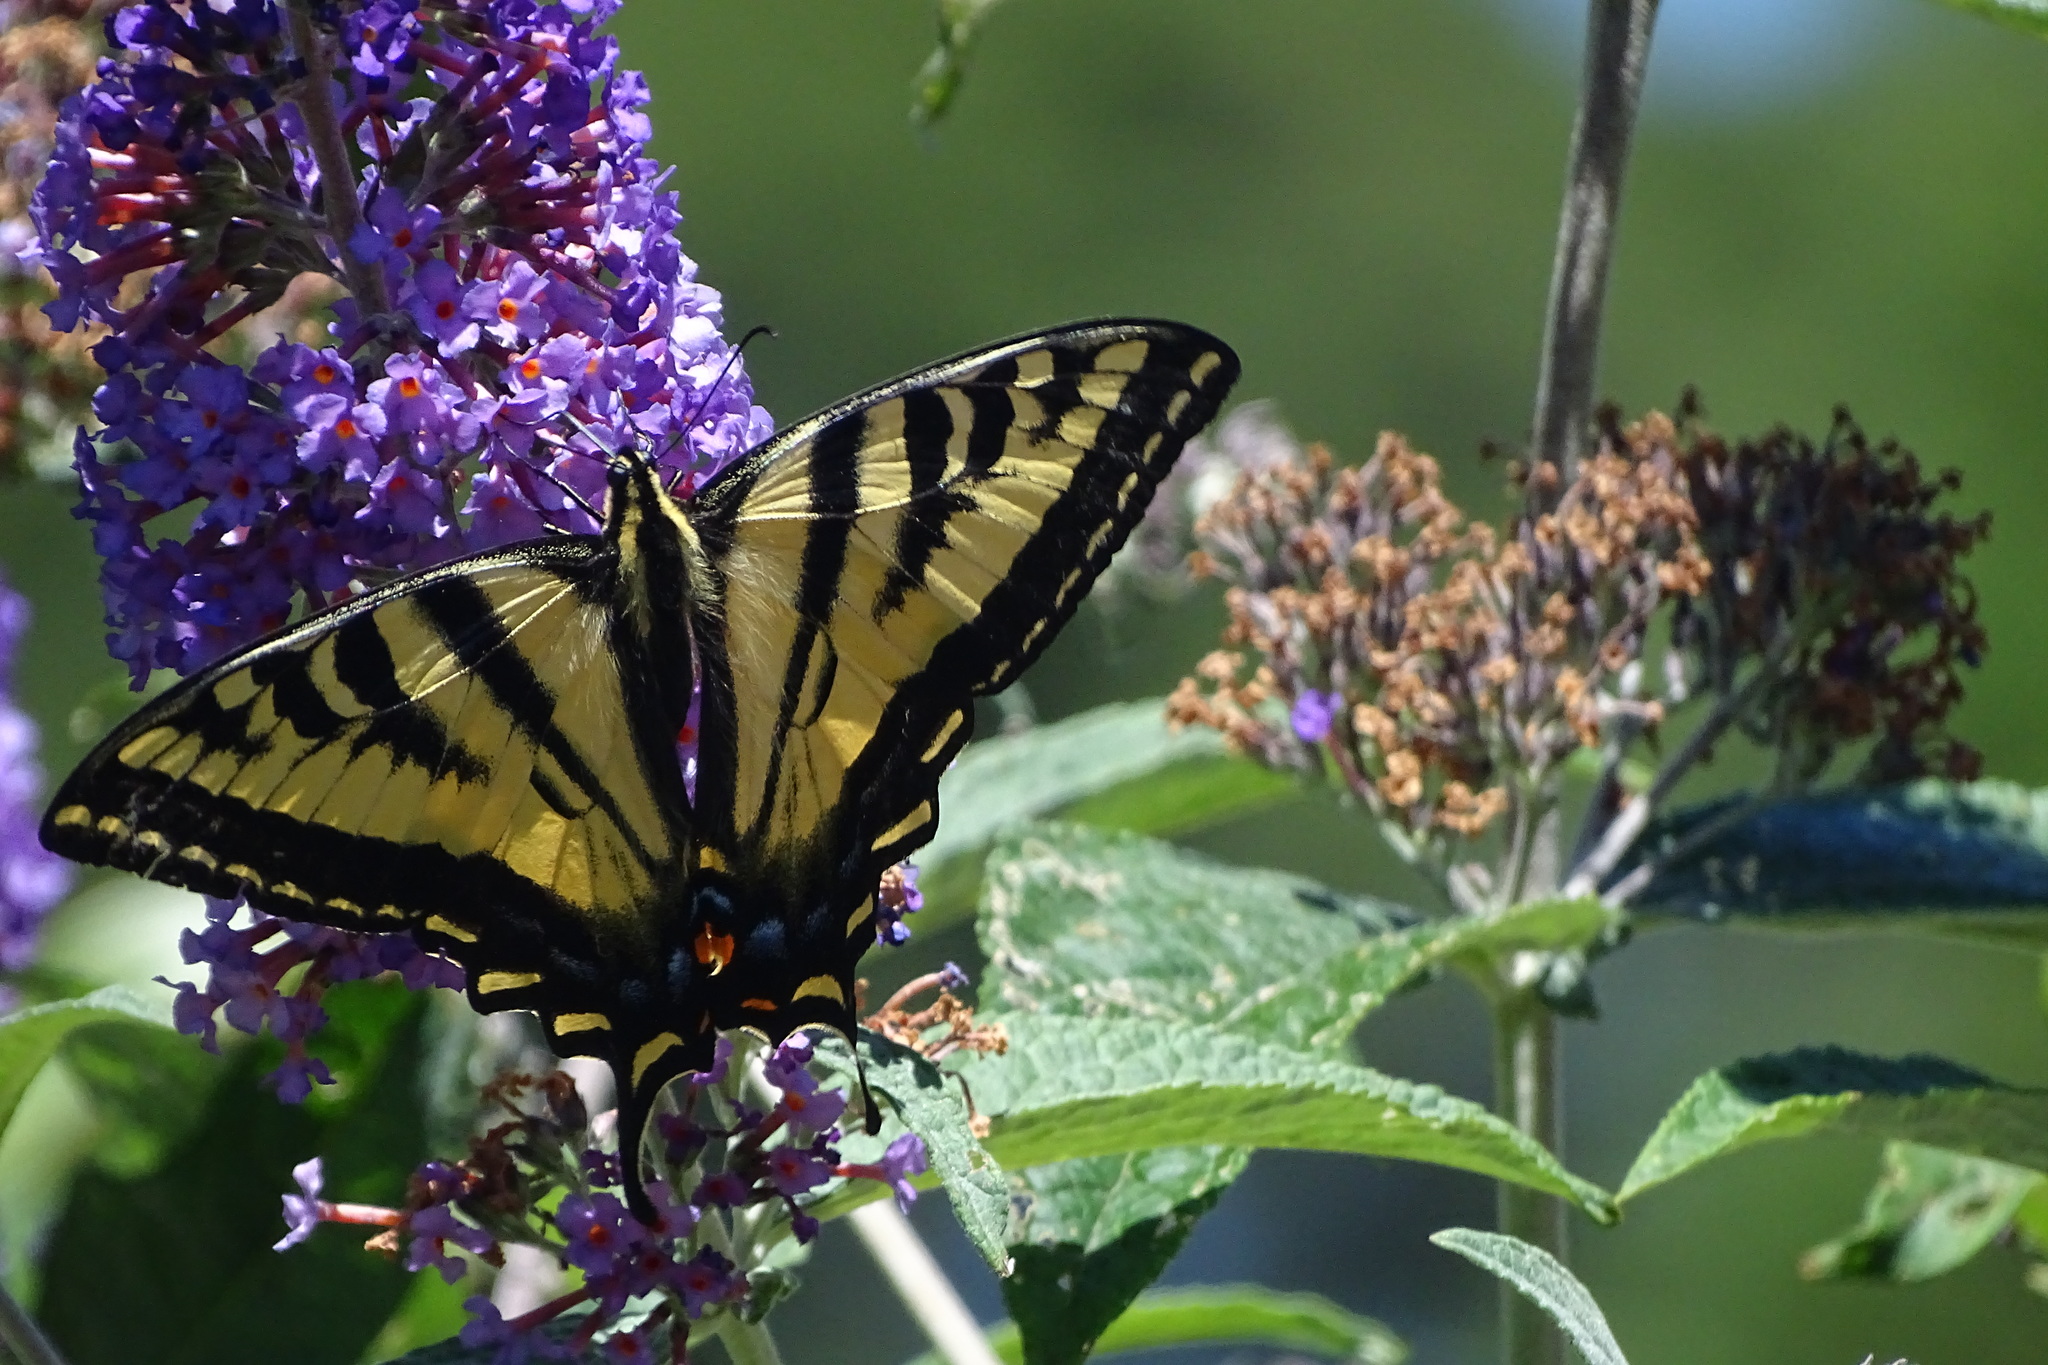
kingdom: Animalia
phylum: Arthropoda
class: Insecta
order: Lepidoptera
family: Papilionidae
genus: Papilio
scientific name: Papilio rutulus
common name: Western tiger swallowtail
